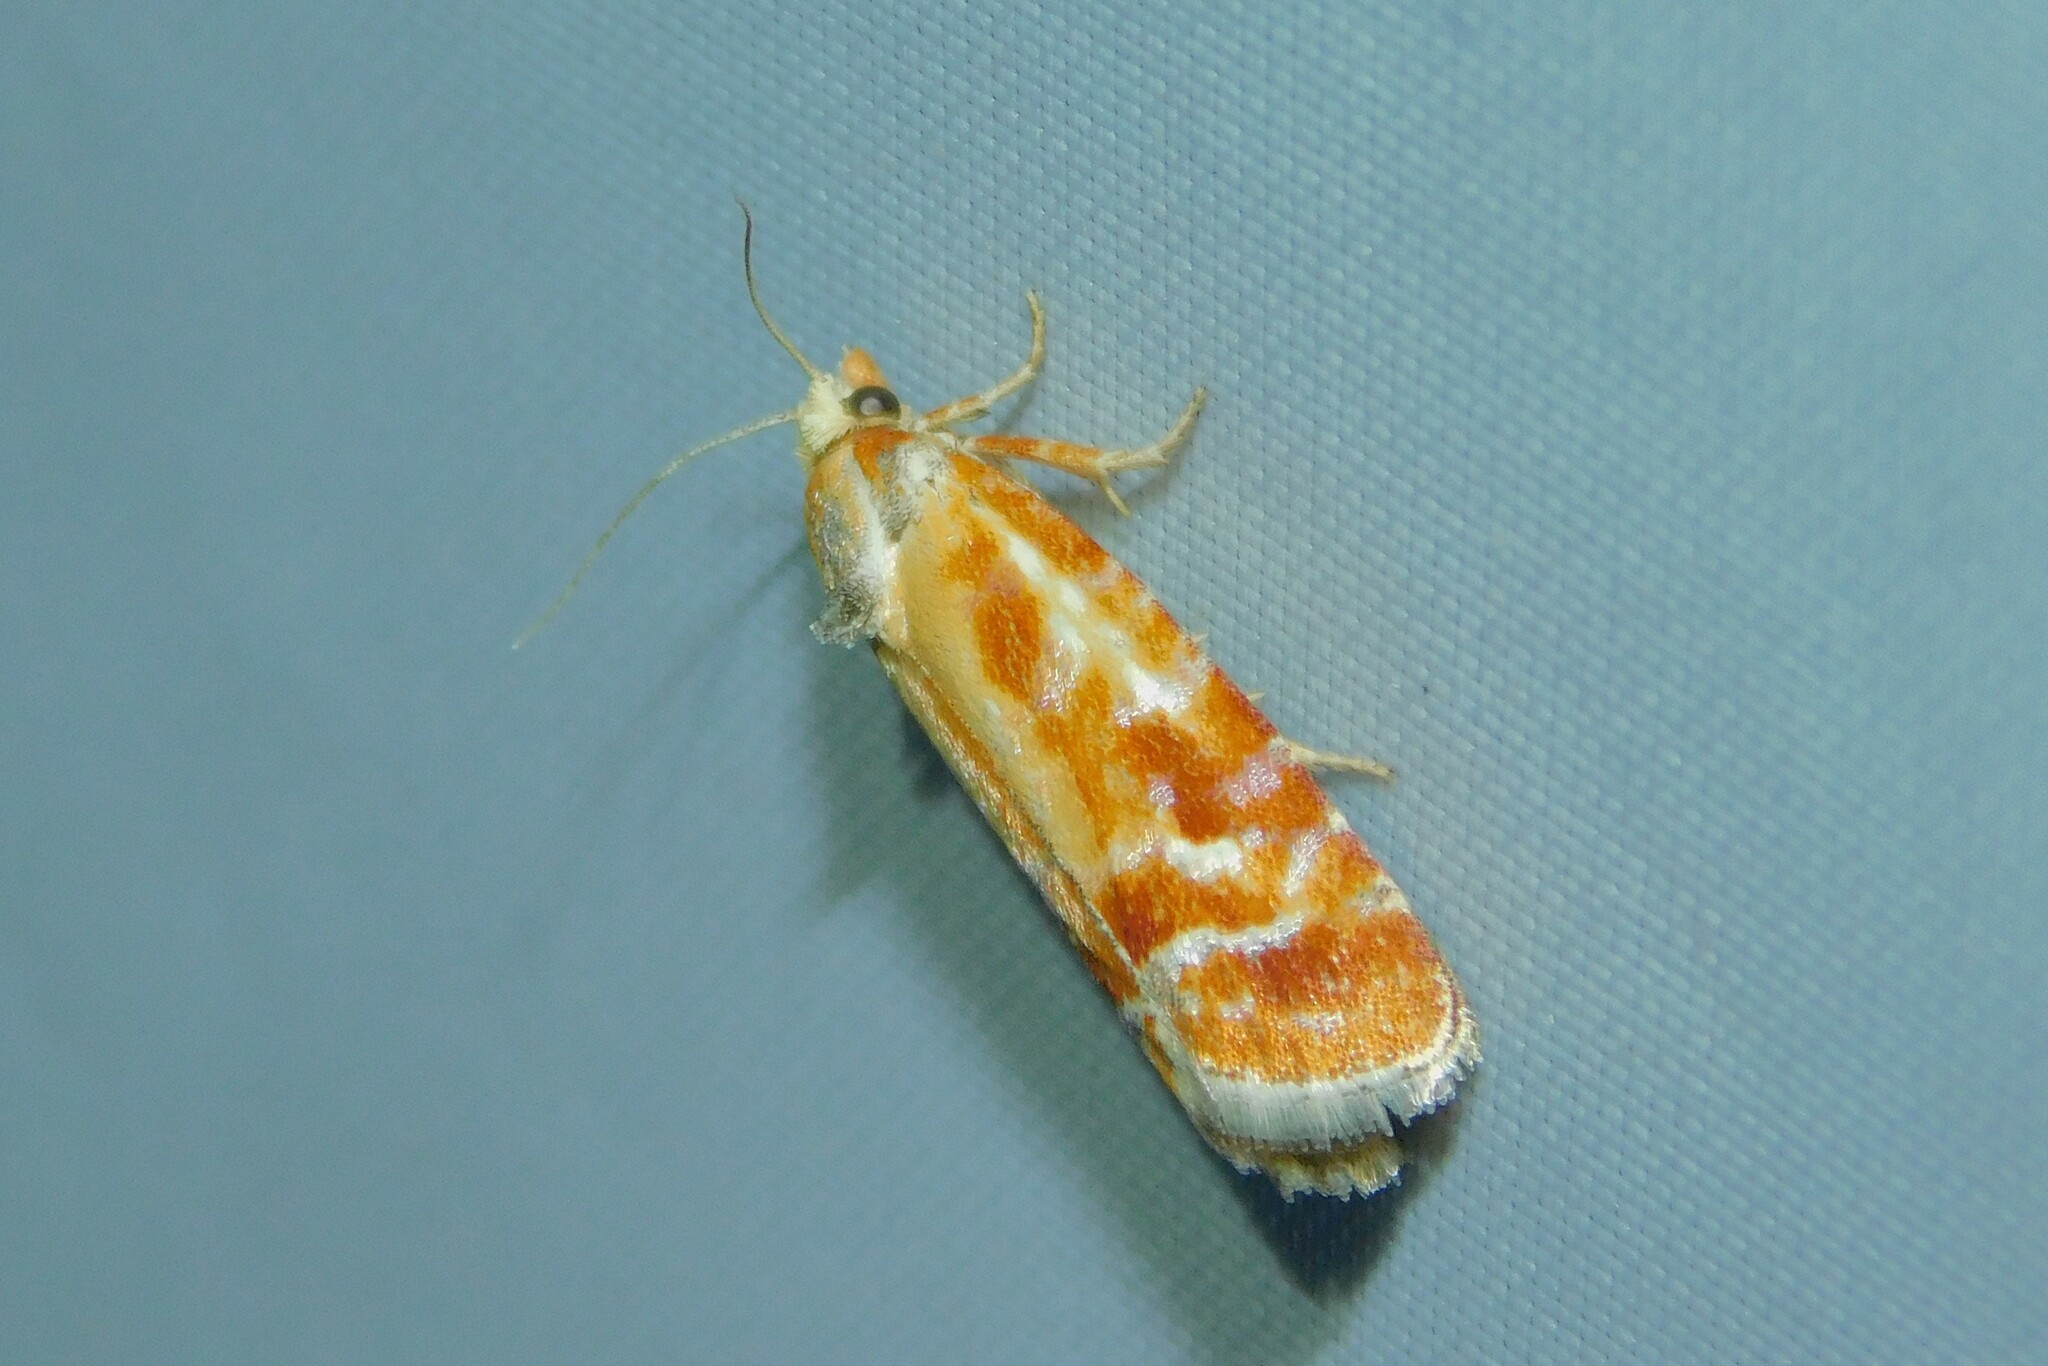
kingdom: Animalia
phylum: Arthropoda
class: Insecta
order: Lepidoptera
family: Tortricidae
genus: Rhyacionia
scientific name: Rhyacionia buoliana
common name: European pine shoot moth
